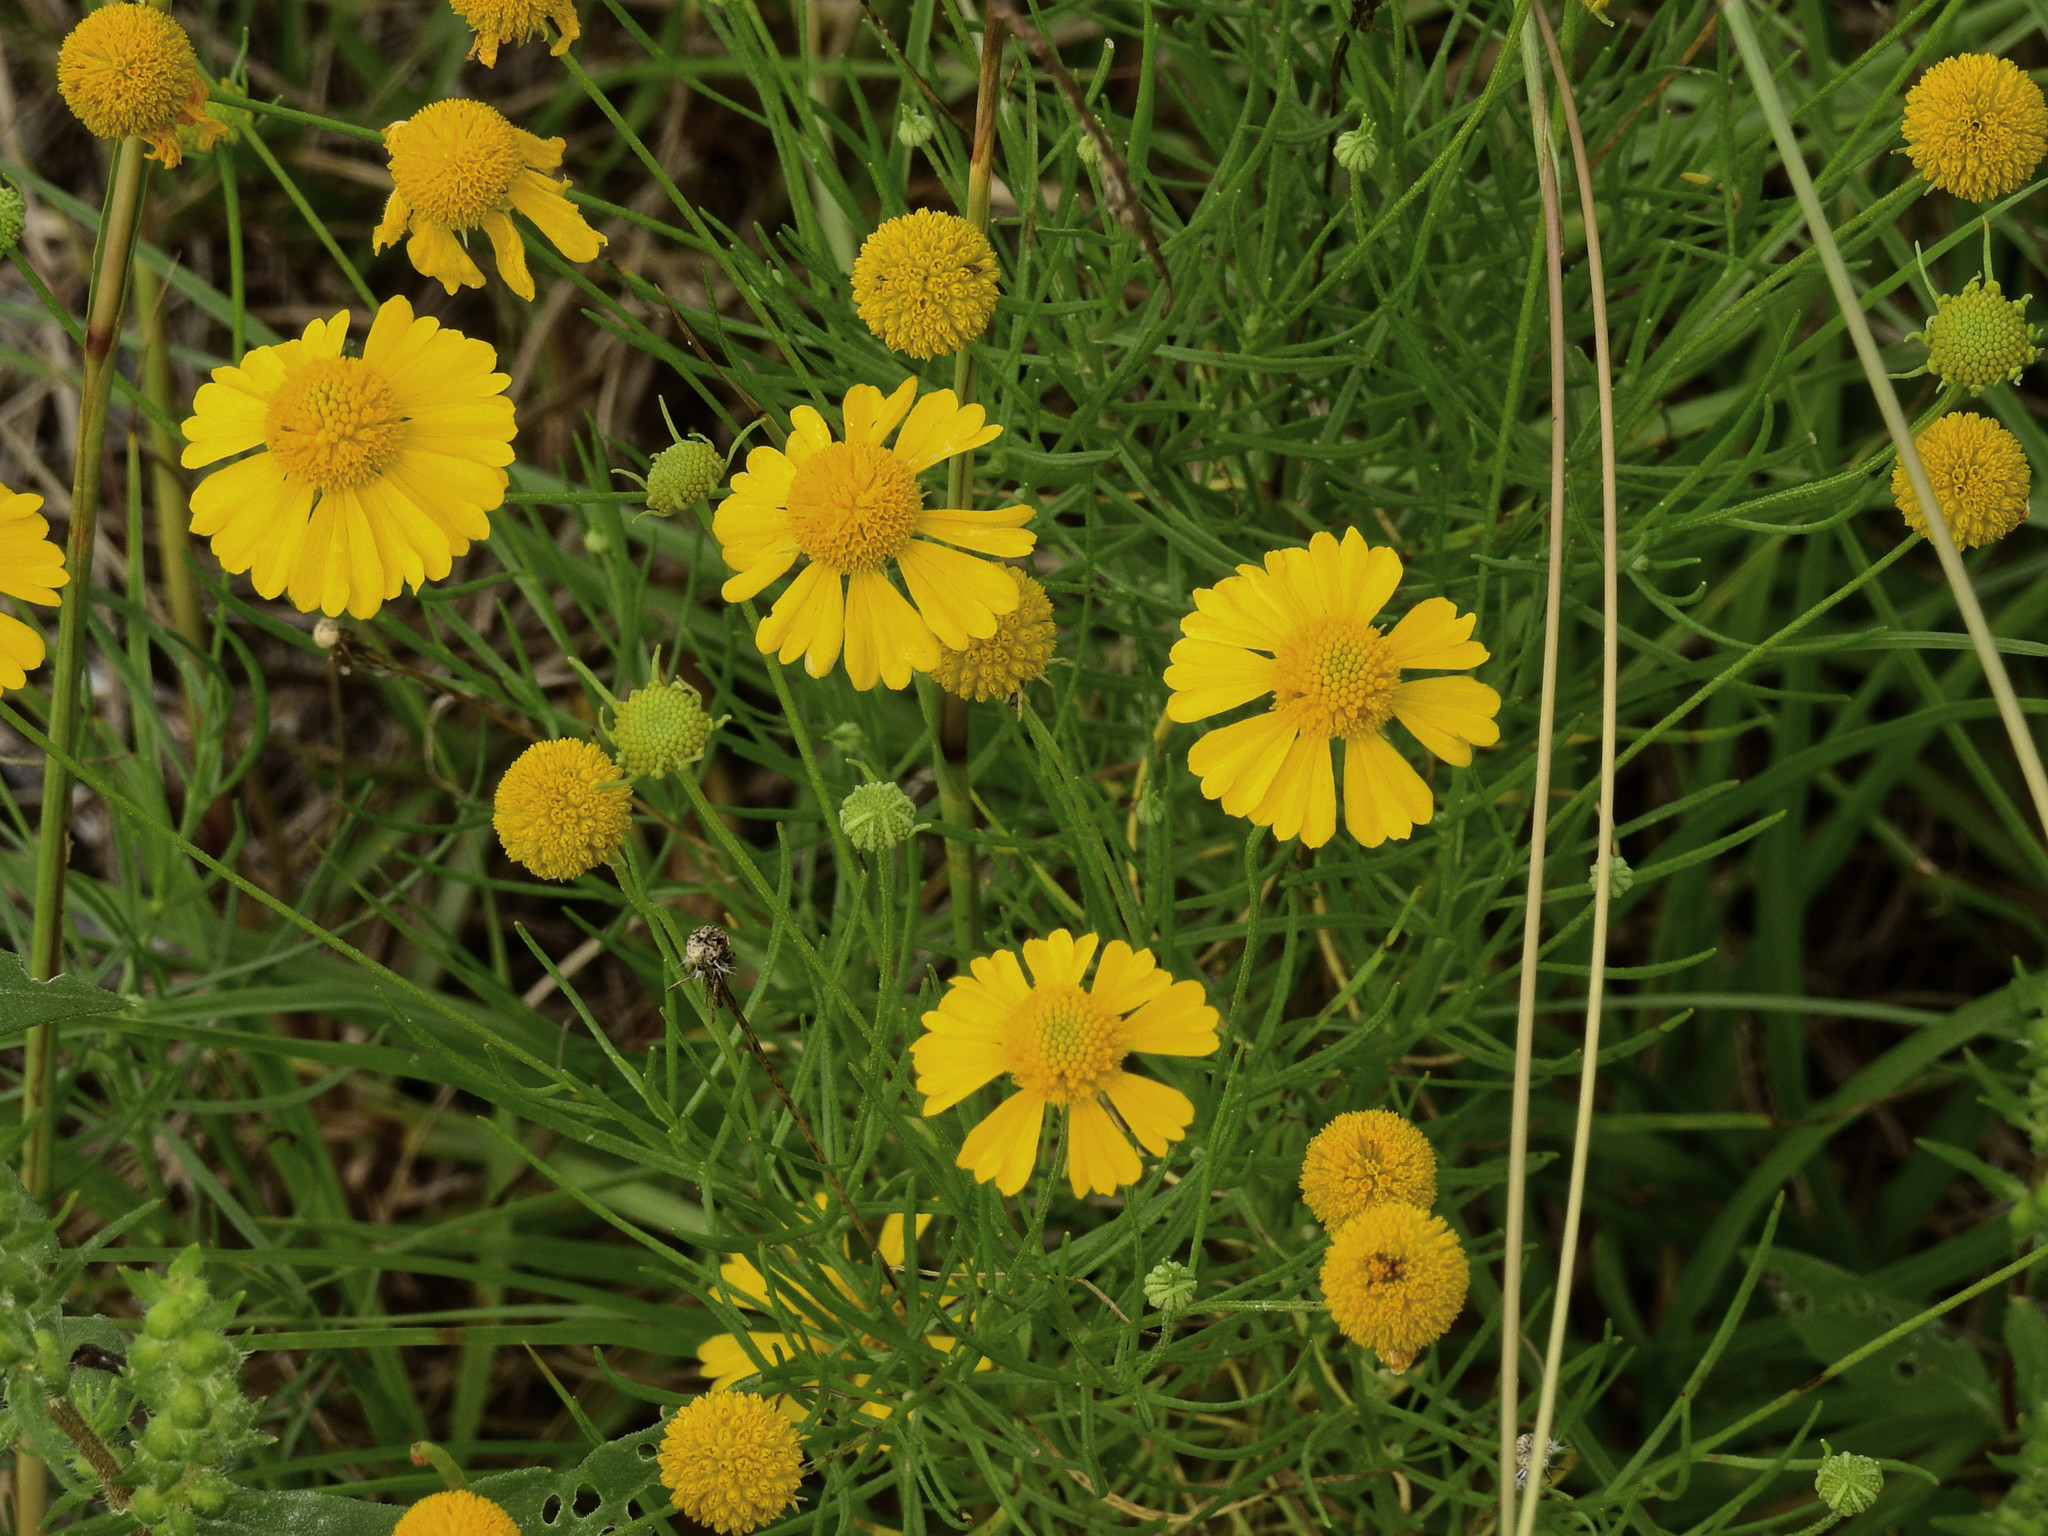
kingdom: Plantae
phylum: Tracheophyta
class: Magnoliopsida
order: Asterales
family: Asteraceae
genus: Helenium
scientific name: Helenium amarum
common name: Bitter sneezeweed
